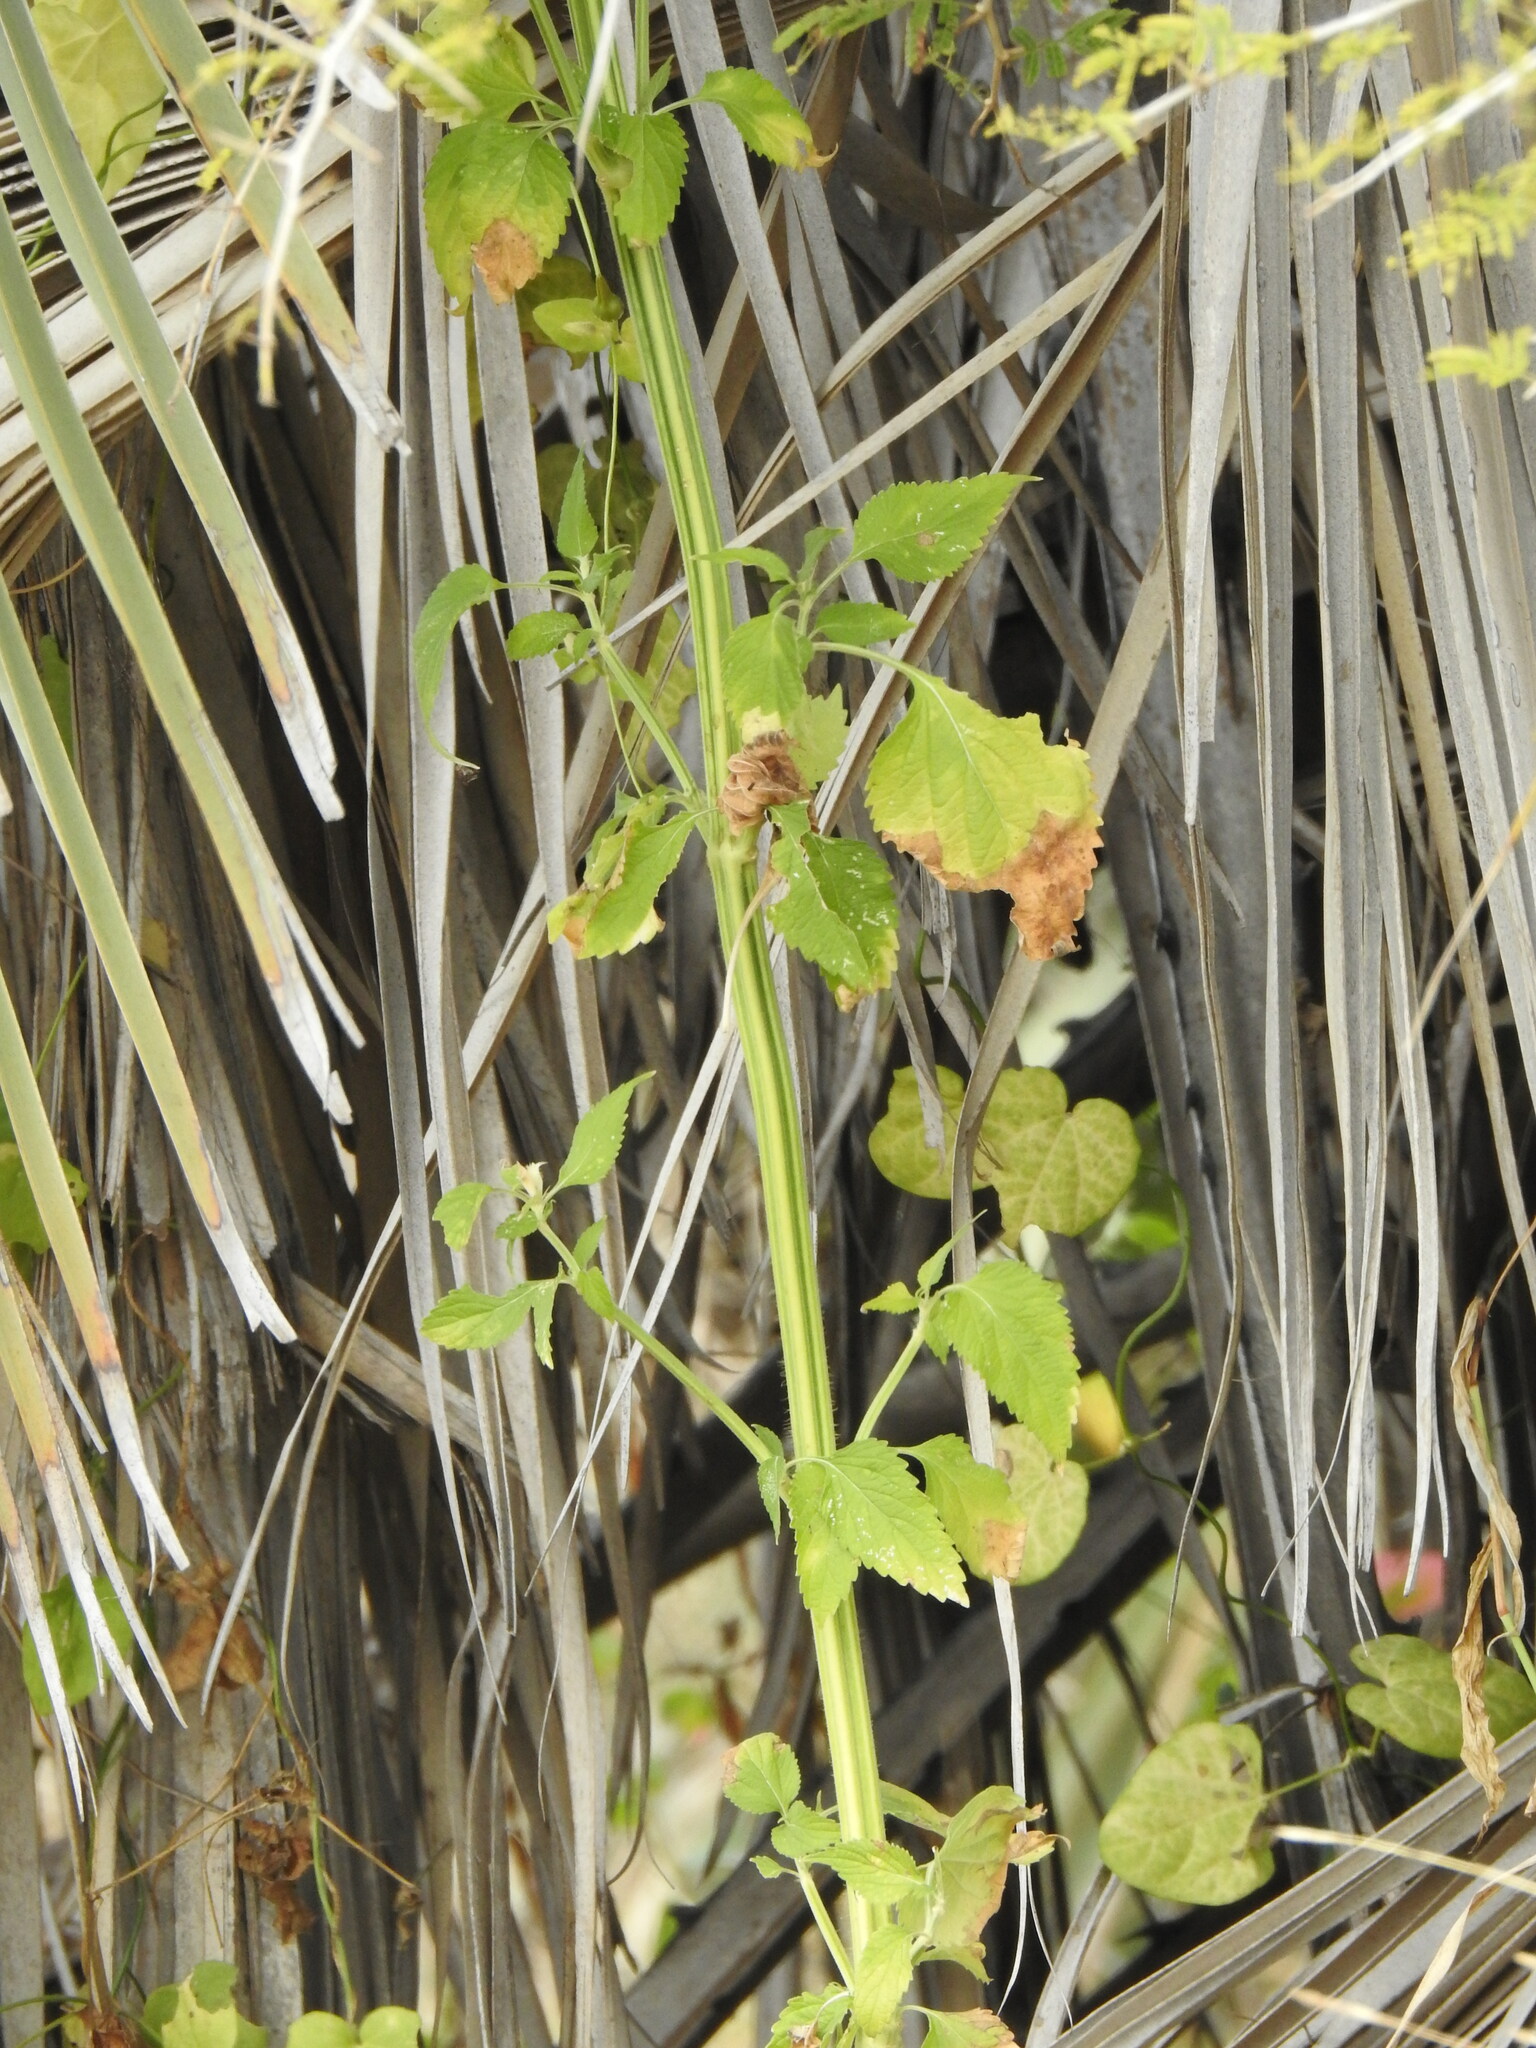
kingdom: Plantae
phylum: Tracheophyta
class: Magnoliopsida
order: Lamiales
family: Lamiaceae
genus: Leonotis
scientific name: Leonotis nepetifolia
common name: Christmas candlestick
